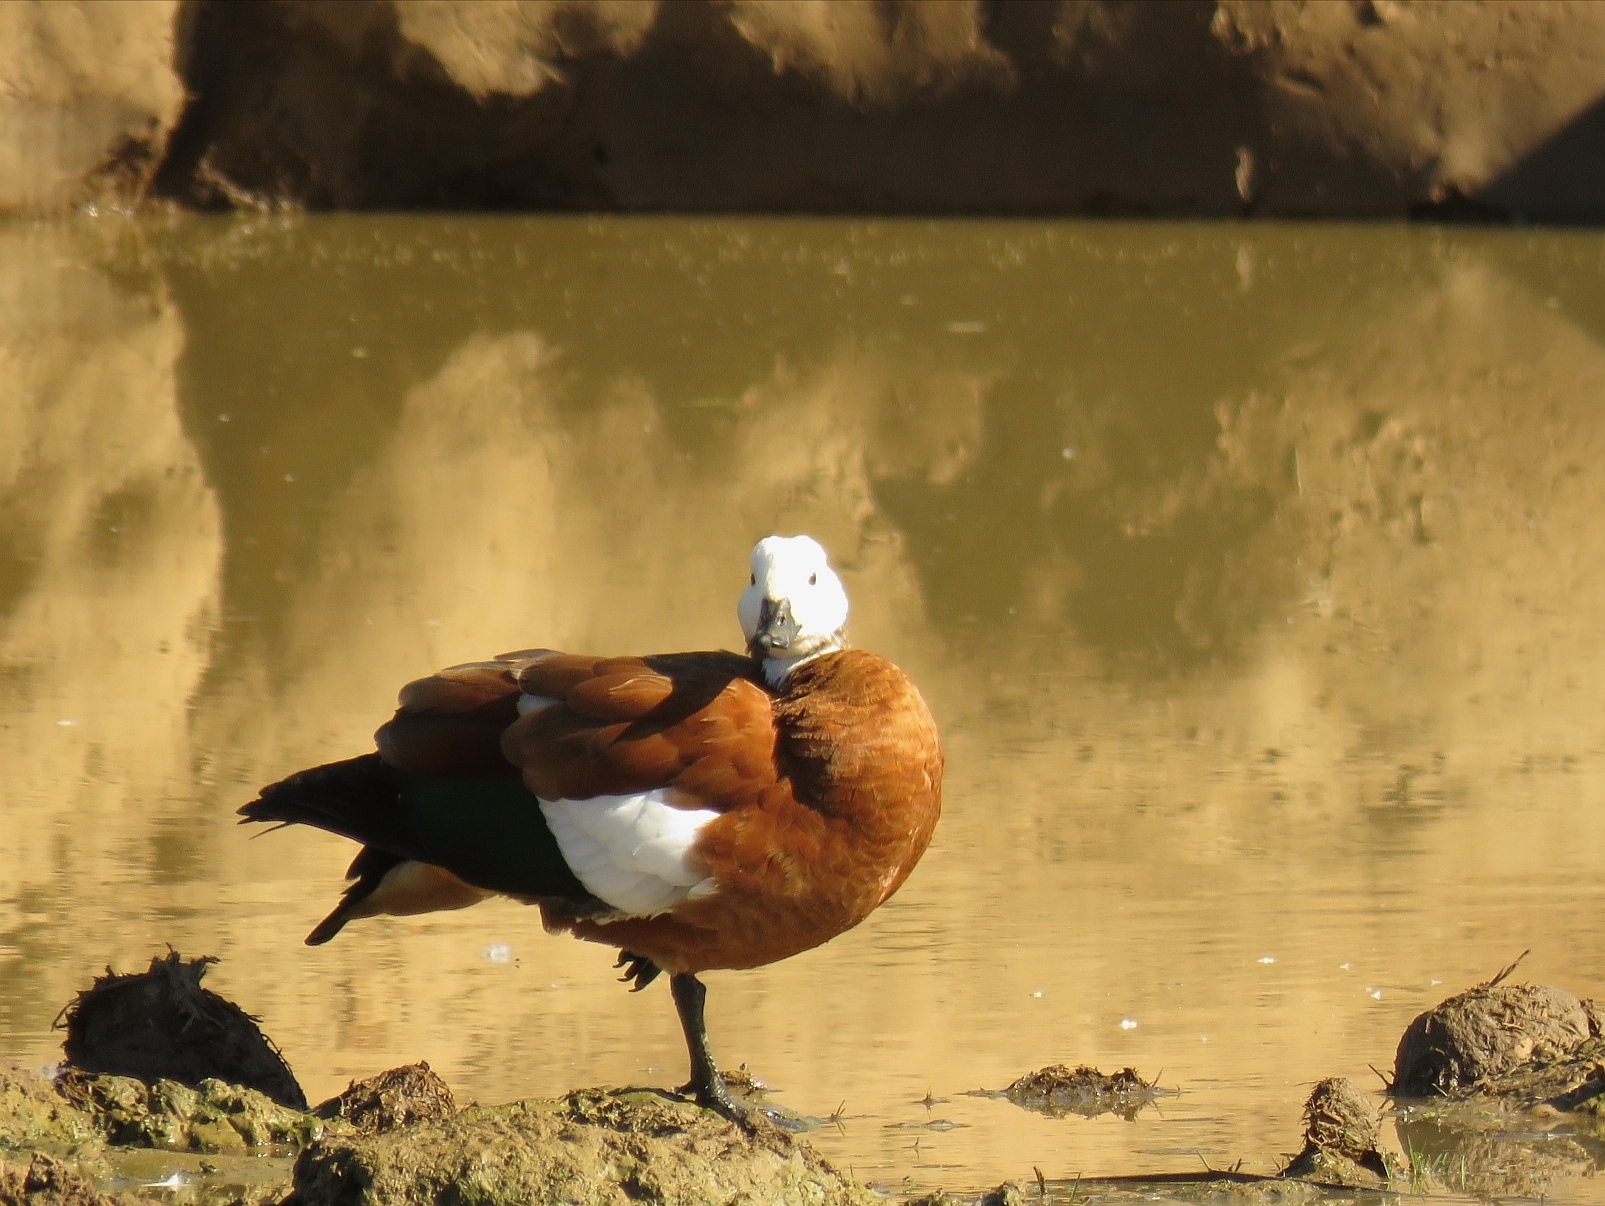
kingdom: Animalia
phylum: Chordata
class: Aves
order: Anseriformes
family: Anatidae
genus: Tadorna
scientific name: Tadorna cana
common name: South african shelduck
